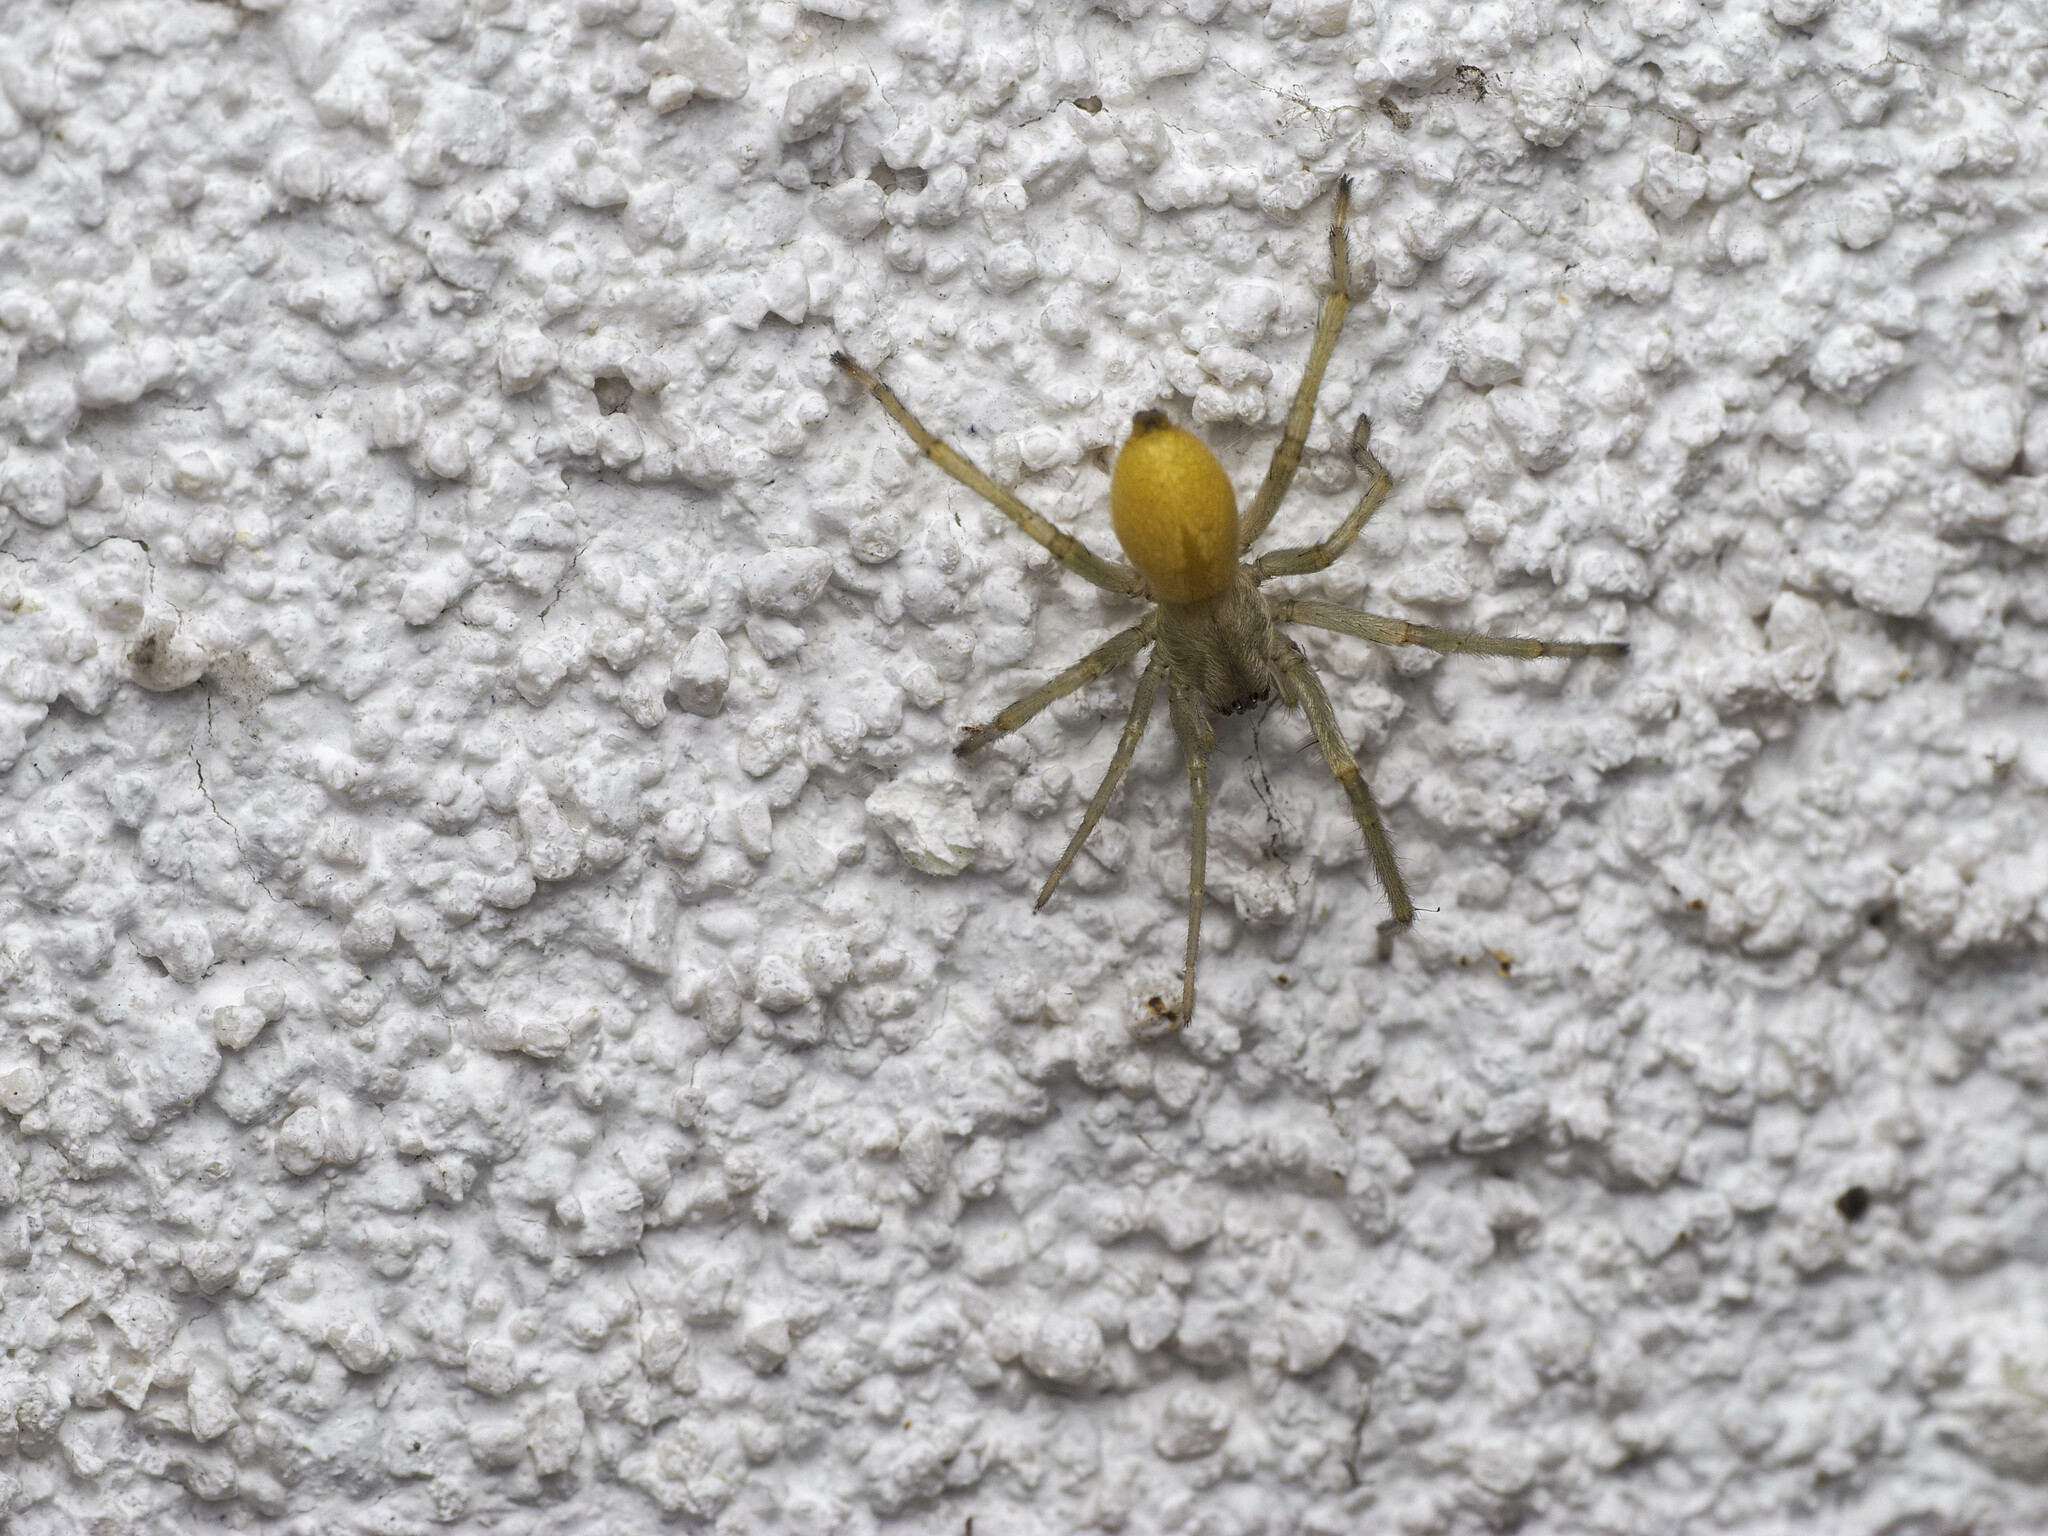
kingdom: Animalia
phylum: Arthropoda
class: Arachnida
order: Araneae
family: Cheiracanthiidae
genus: Cheiracanthium
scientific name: Cheiracanthium mildei
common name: Northern yellow sac spider
